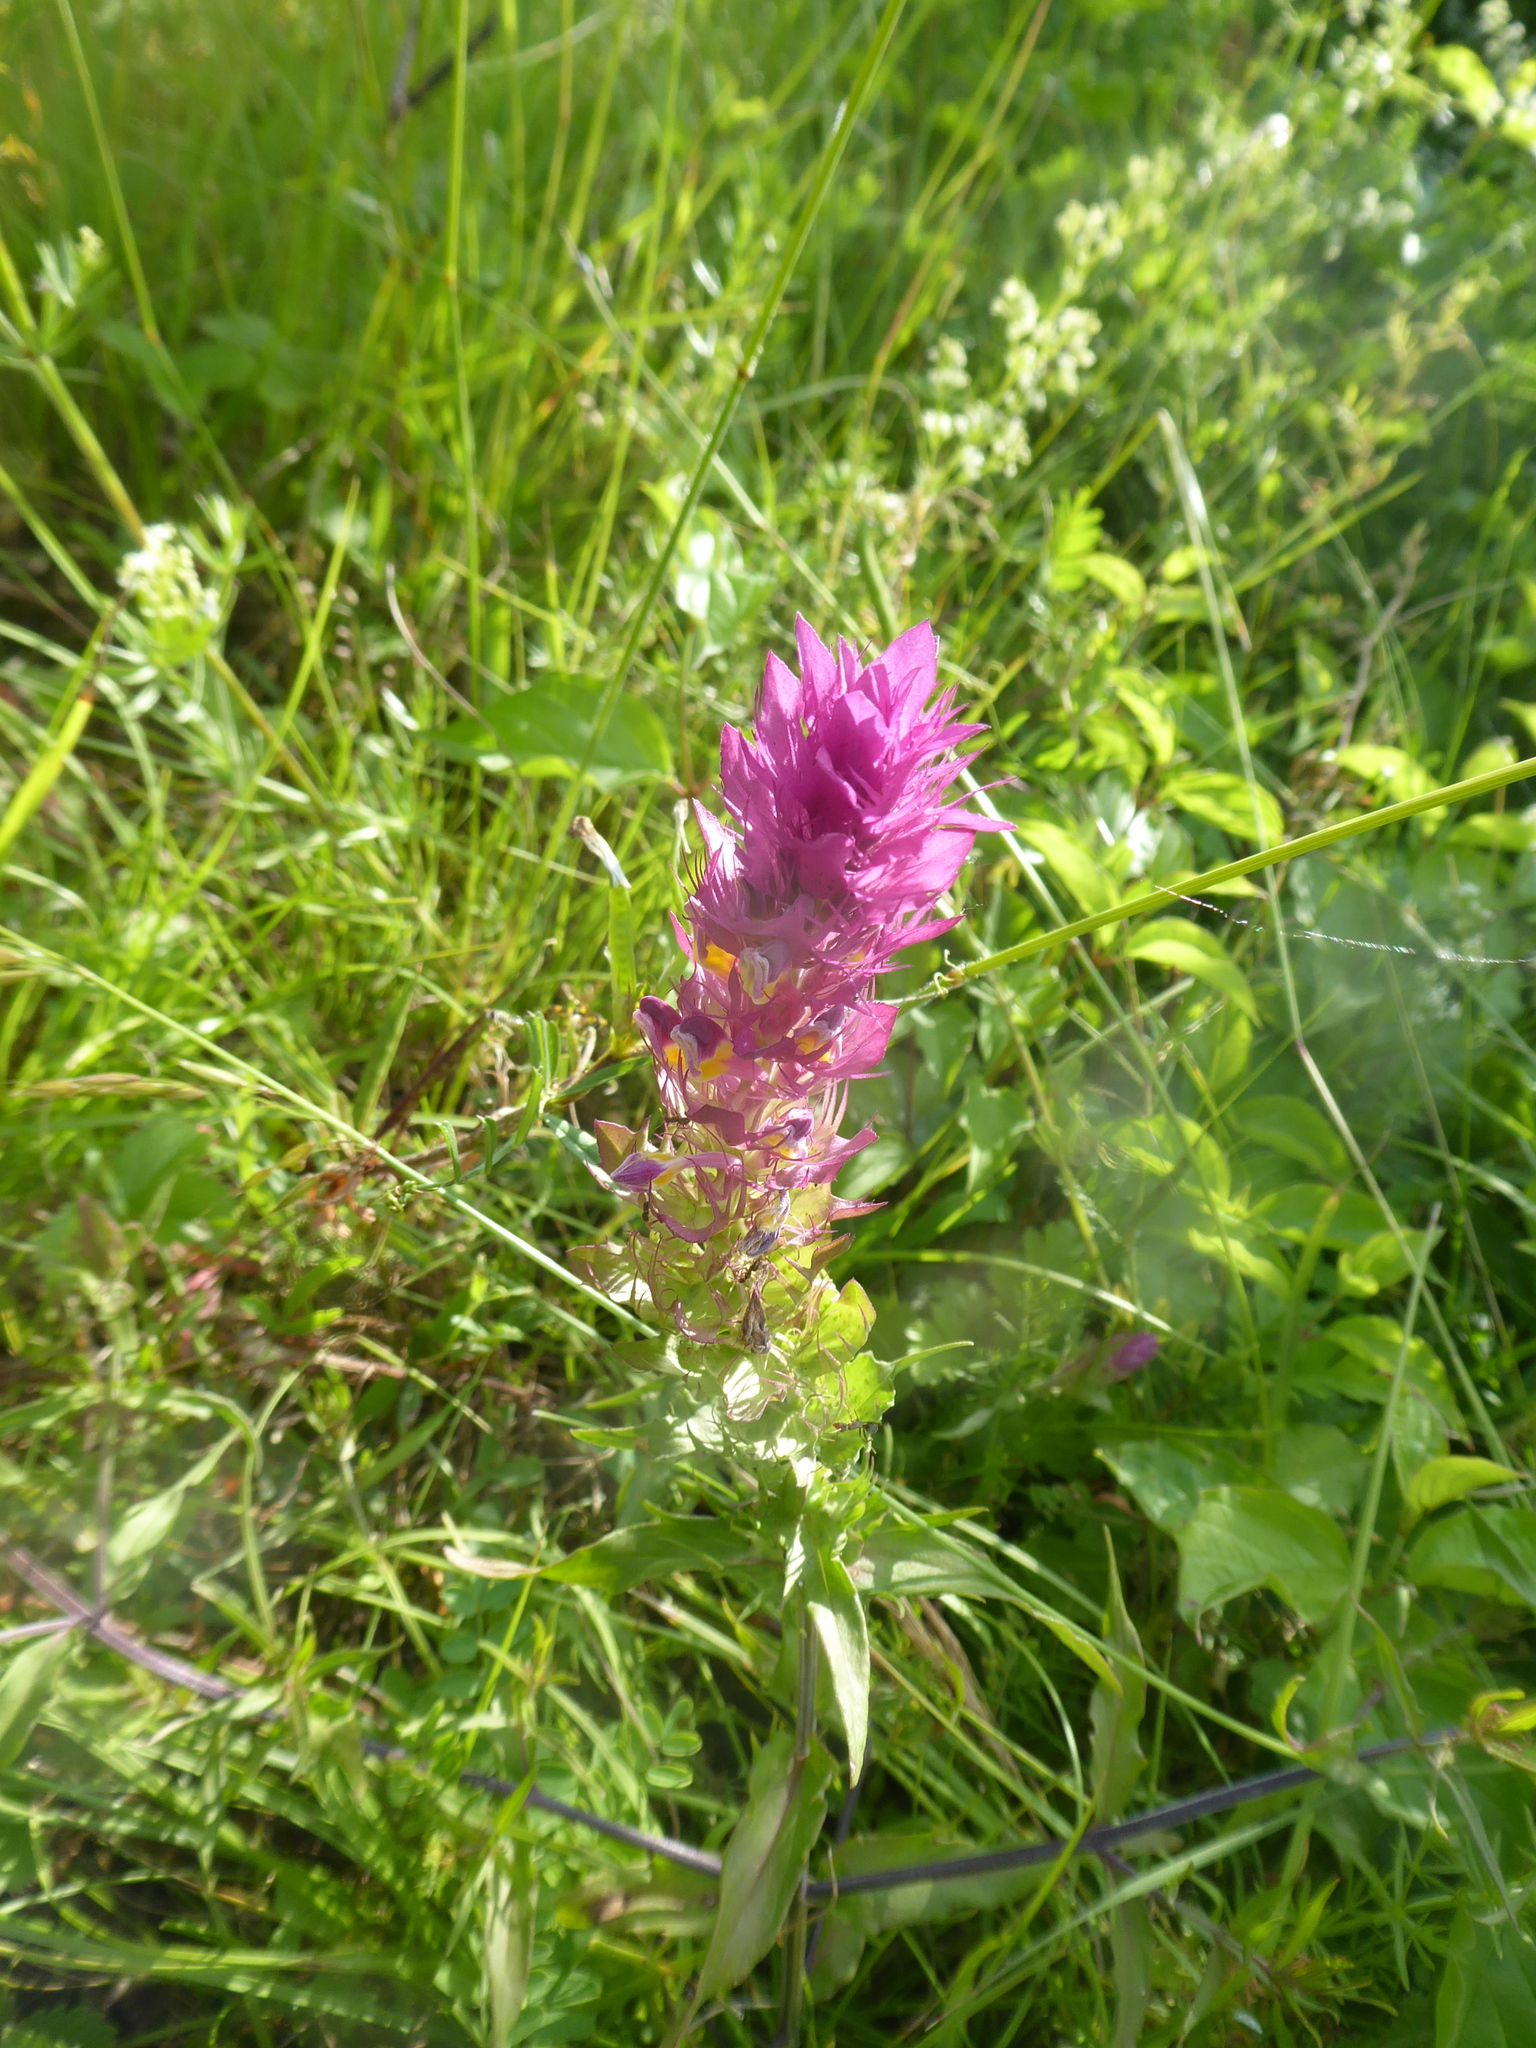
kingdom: Plantae
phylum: Tracheophyta
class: Magnoliopsida
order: Lamiales
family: Orobanchaceae
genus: Melampyrum
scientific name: Melampyrum arvense
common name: Field cow-wheat
